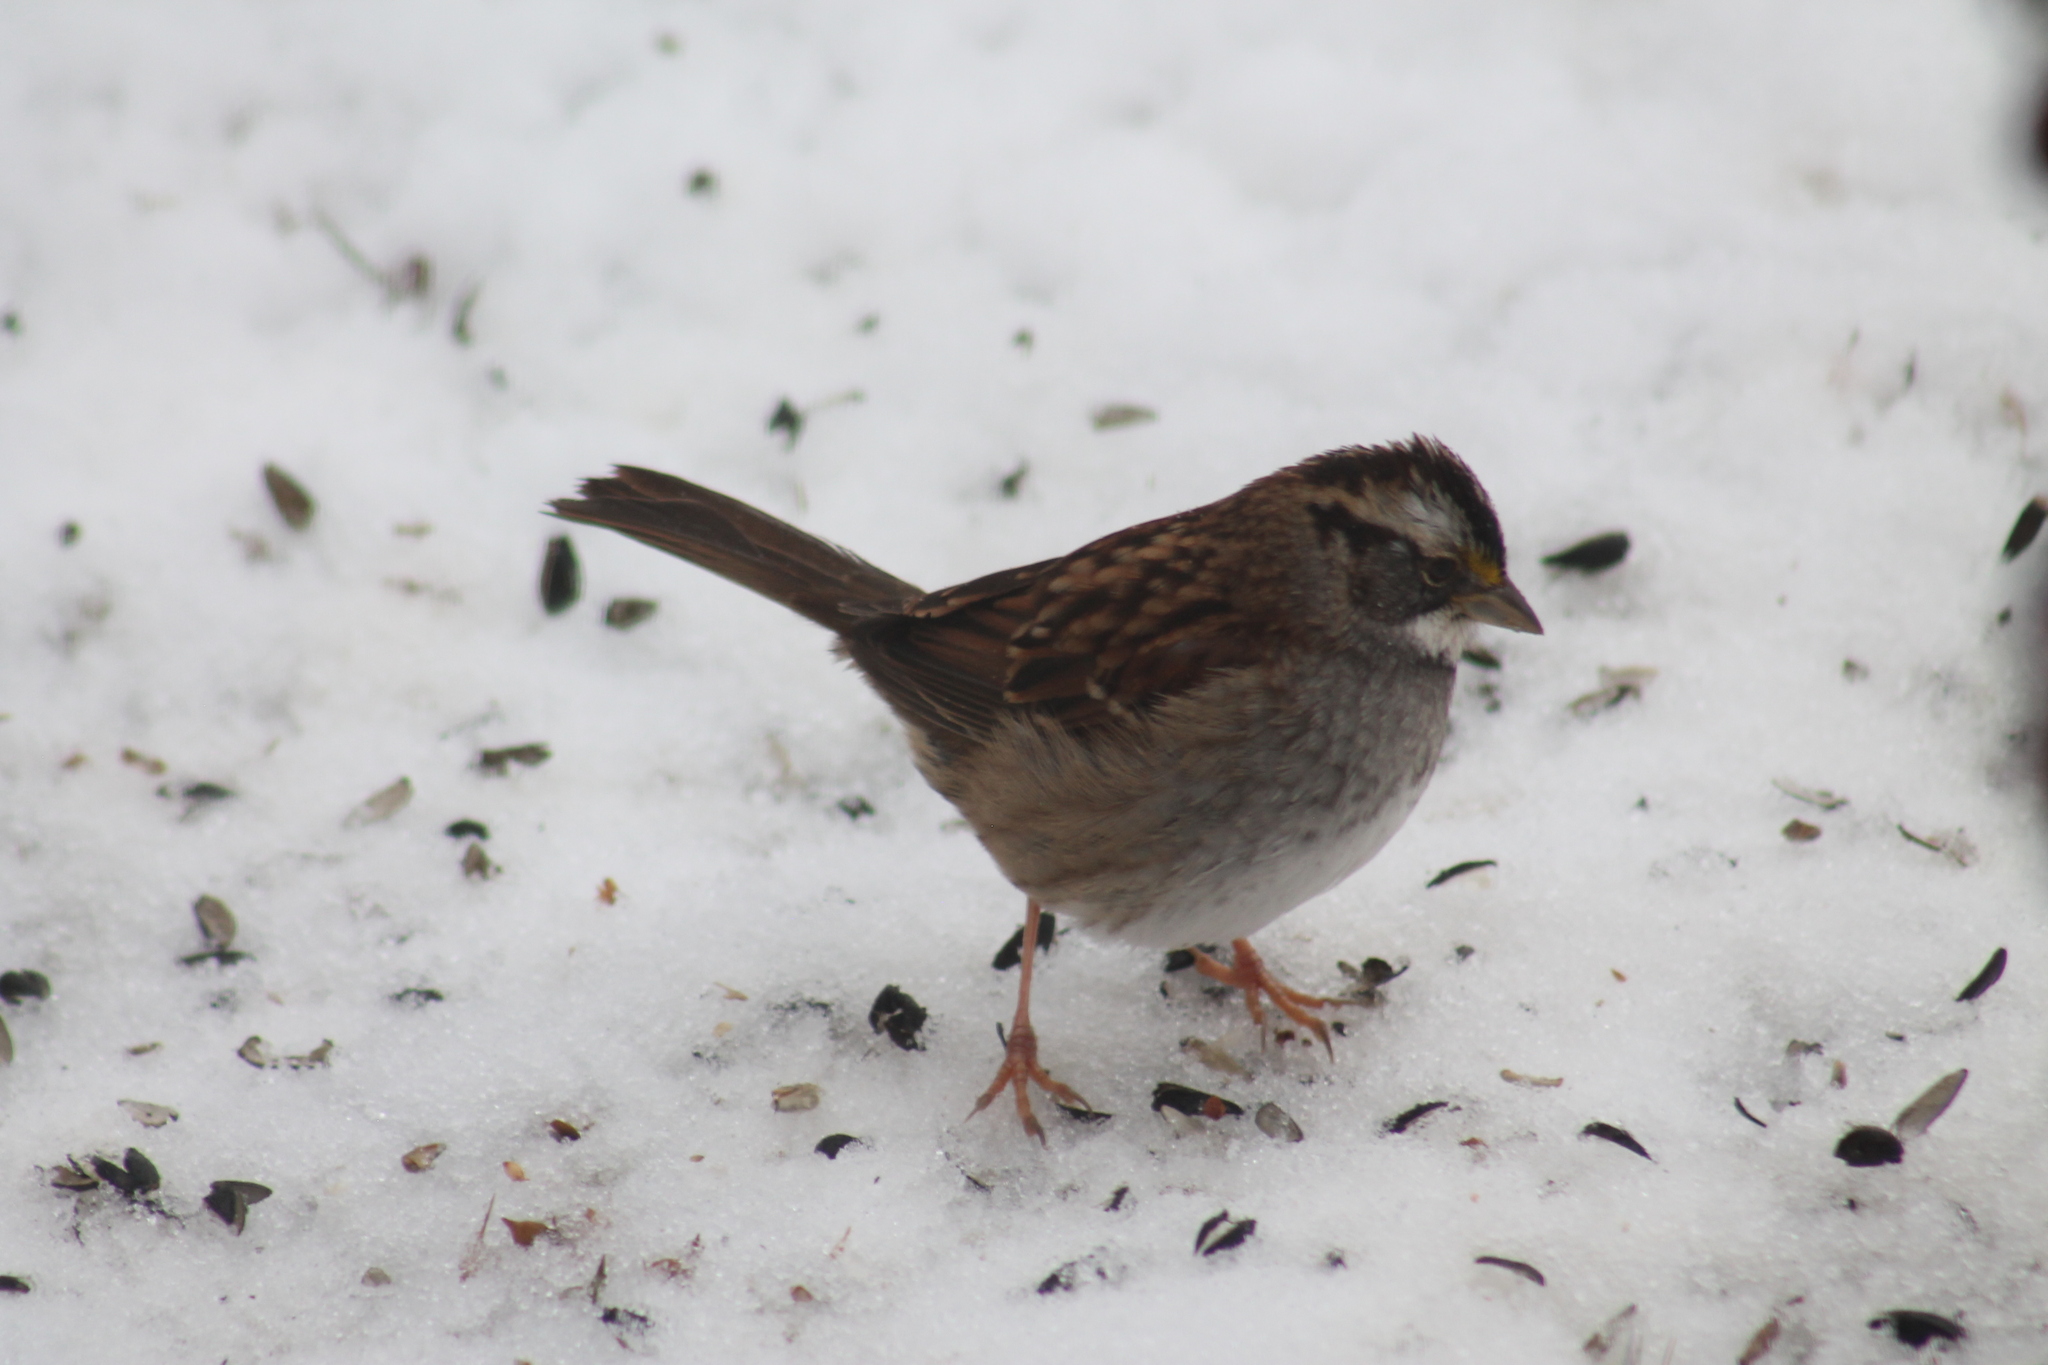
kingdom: Animalia
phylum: Chordata
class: Aves
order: Passeriformes
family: Passerellidae
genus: Zonotrichia
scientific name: Zonotrichia albicollis
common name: White-throated sparrow
